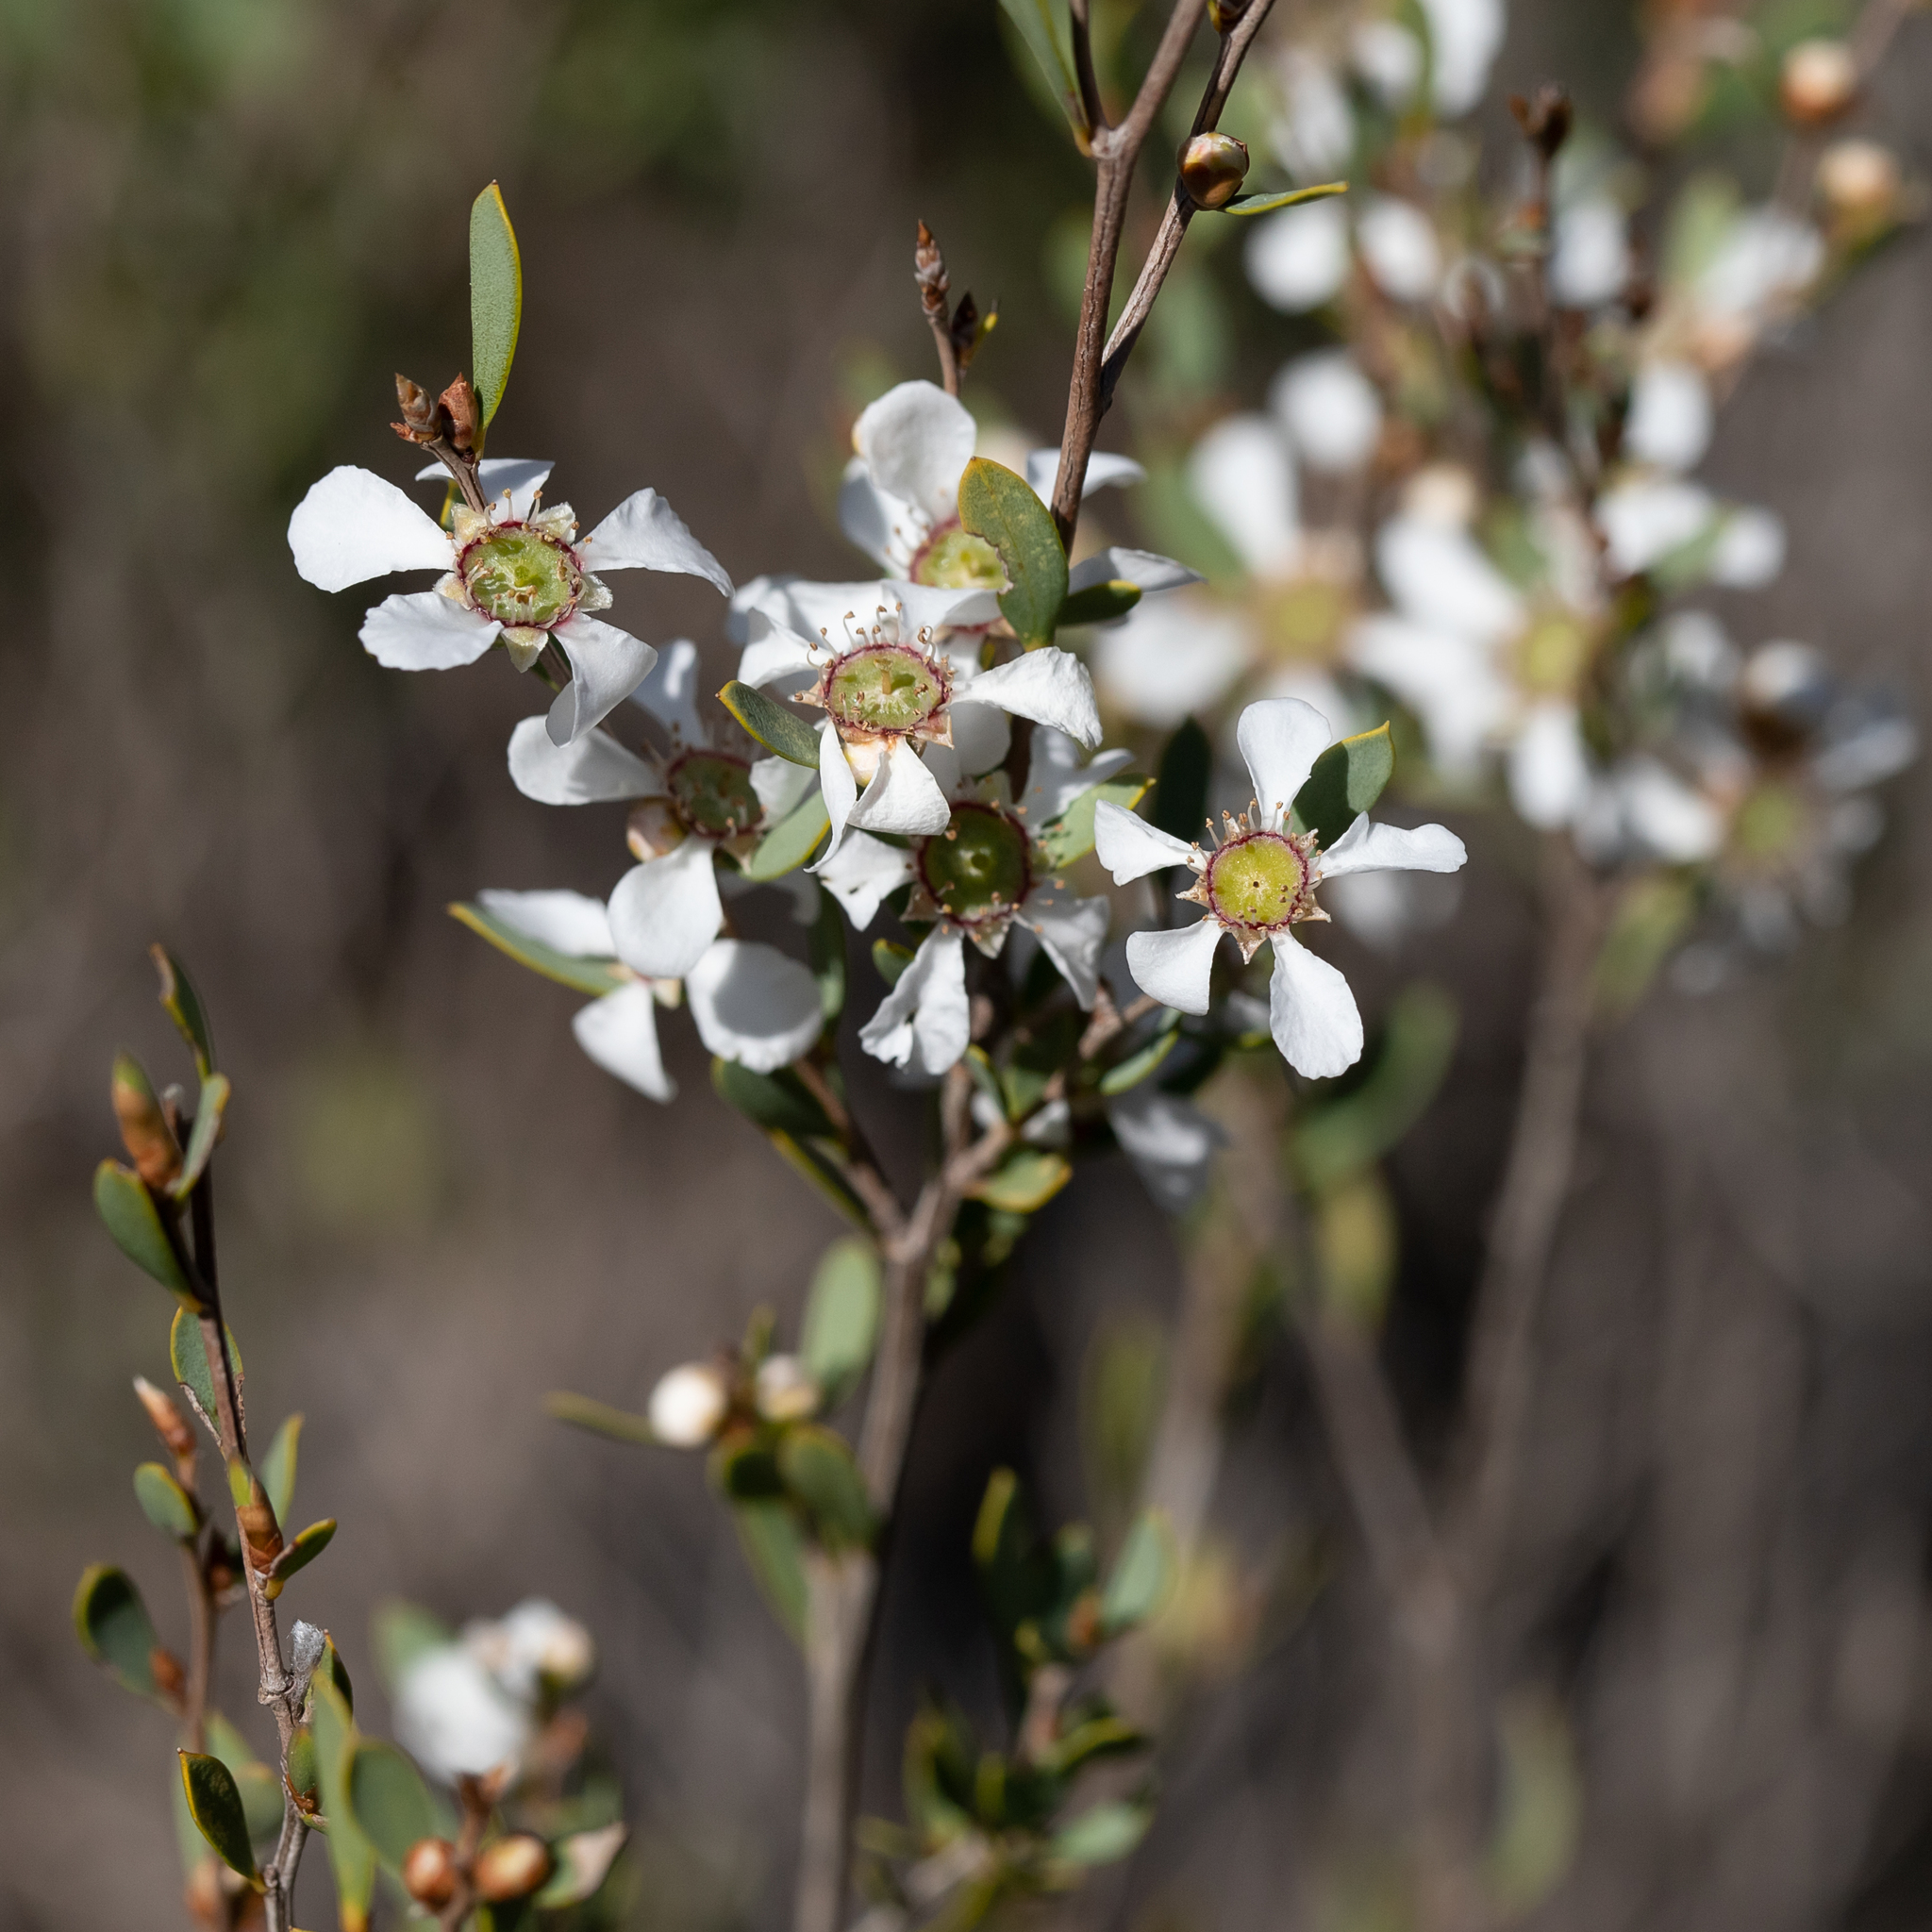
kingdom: Plantae
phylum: Tracheophyta
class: Magnoliopsida
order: Myrtales
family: Myrtaceae
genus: Leptospermum
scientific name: Leptospermum coriaceum
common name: Mallee teatree
